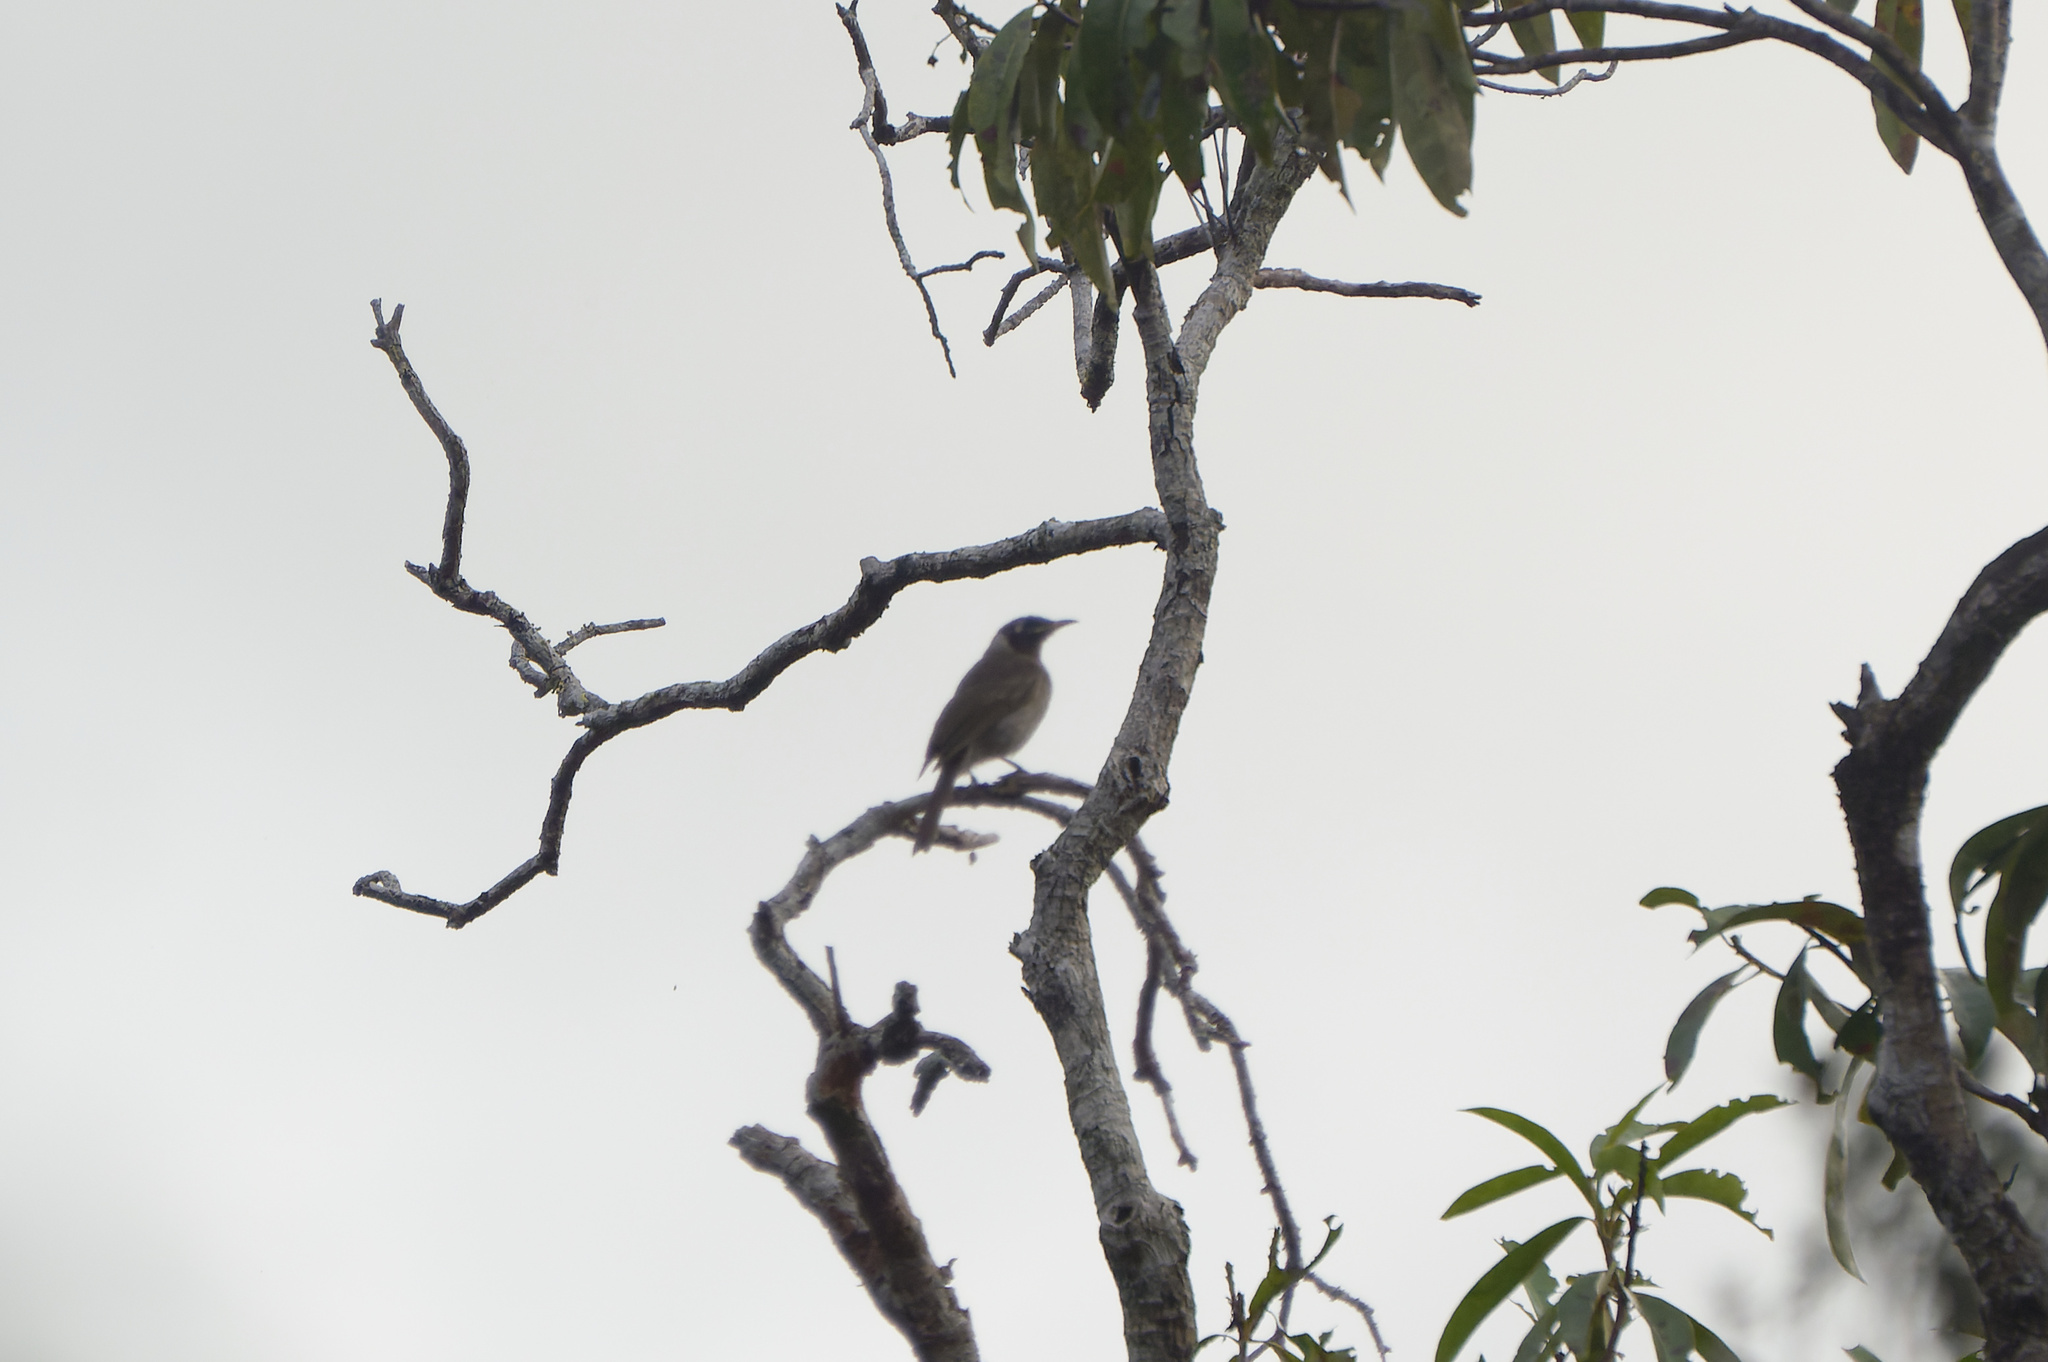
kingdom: Animalia
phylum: Chordata
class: Aves
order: Passeriformes
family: Meliphagidae
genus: Bolemoreus
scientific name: Bolemoreus frenatus
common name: Bridled honeyeater
